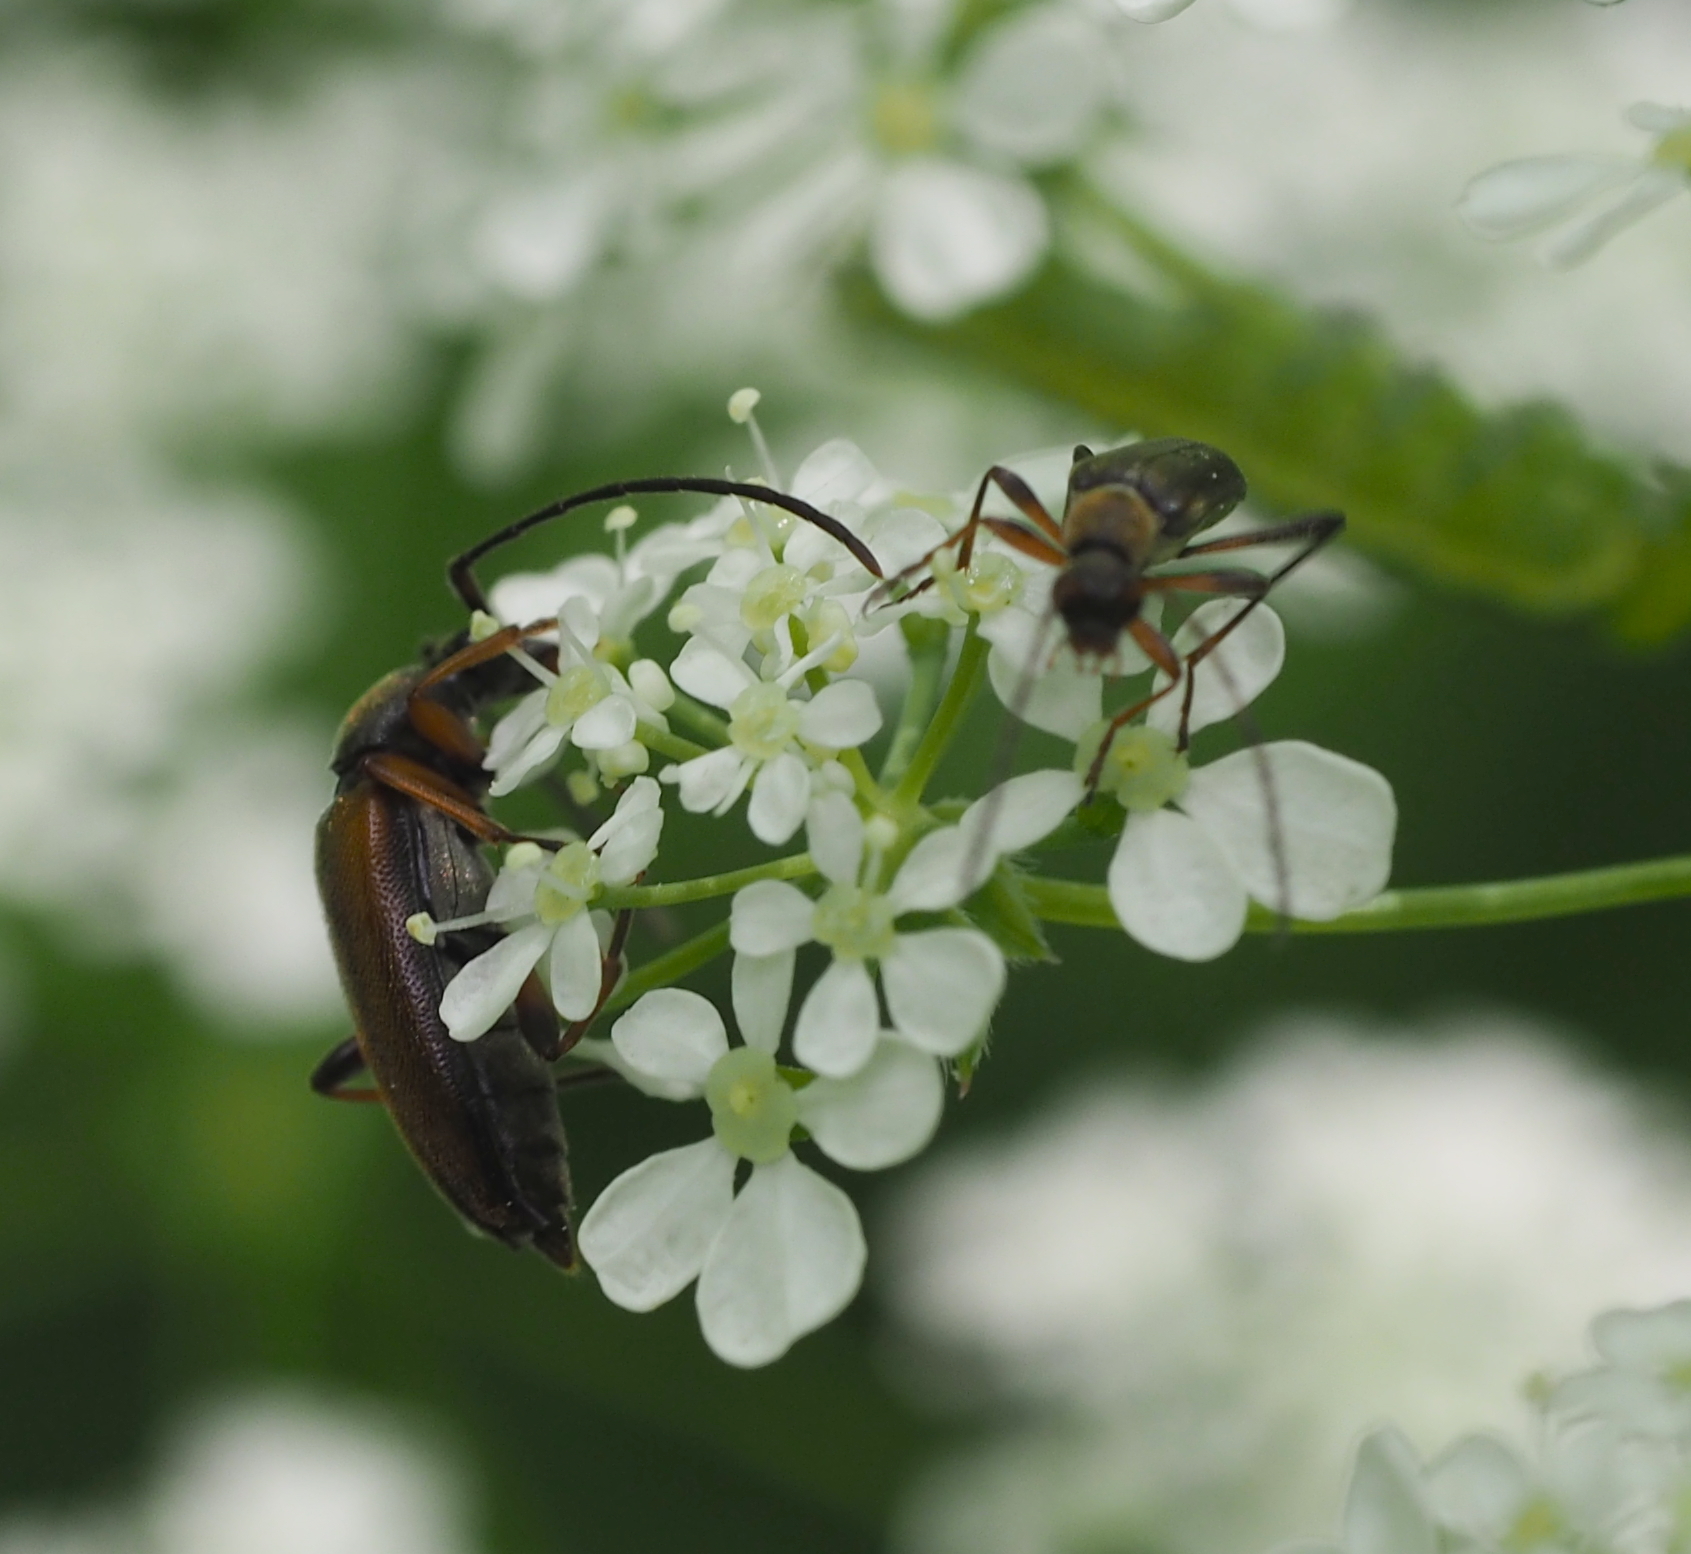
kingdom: Animalia
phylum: Arthropoda
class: Insecta
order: Coleoptera
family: Cerambycidae
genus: Alosterna
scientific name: Alosterna tabacicolor
